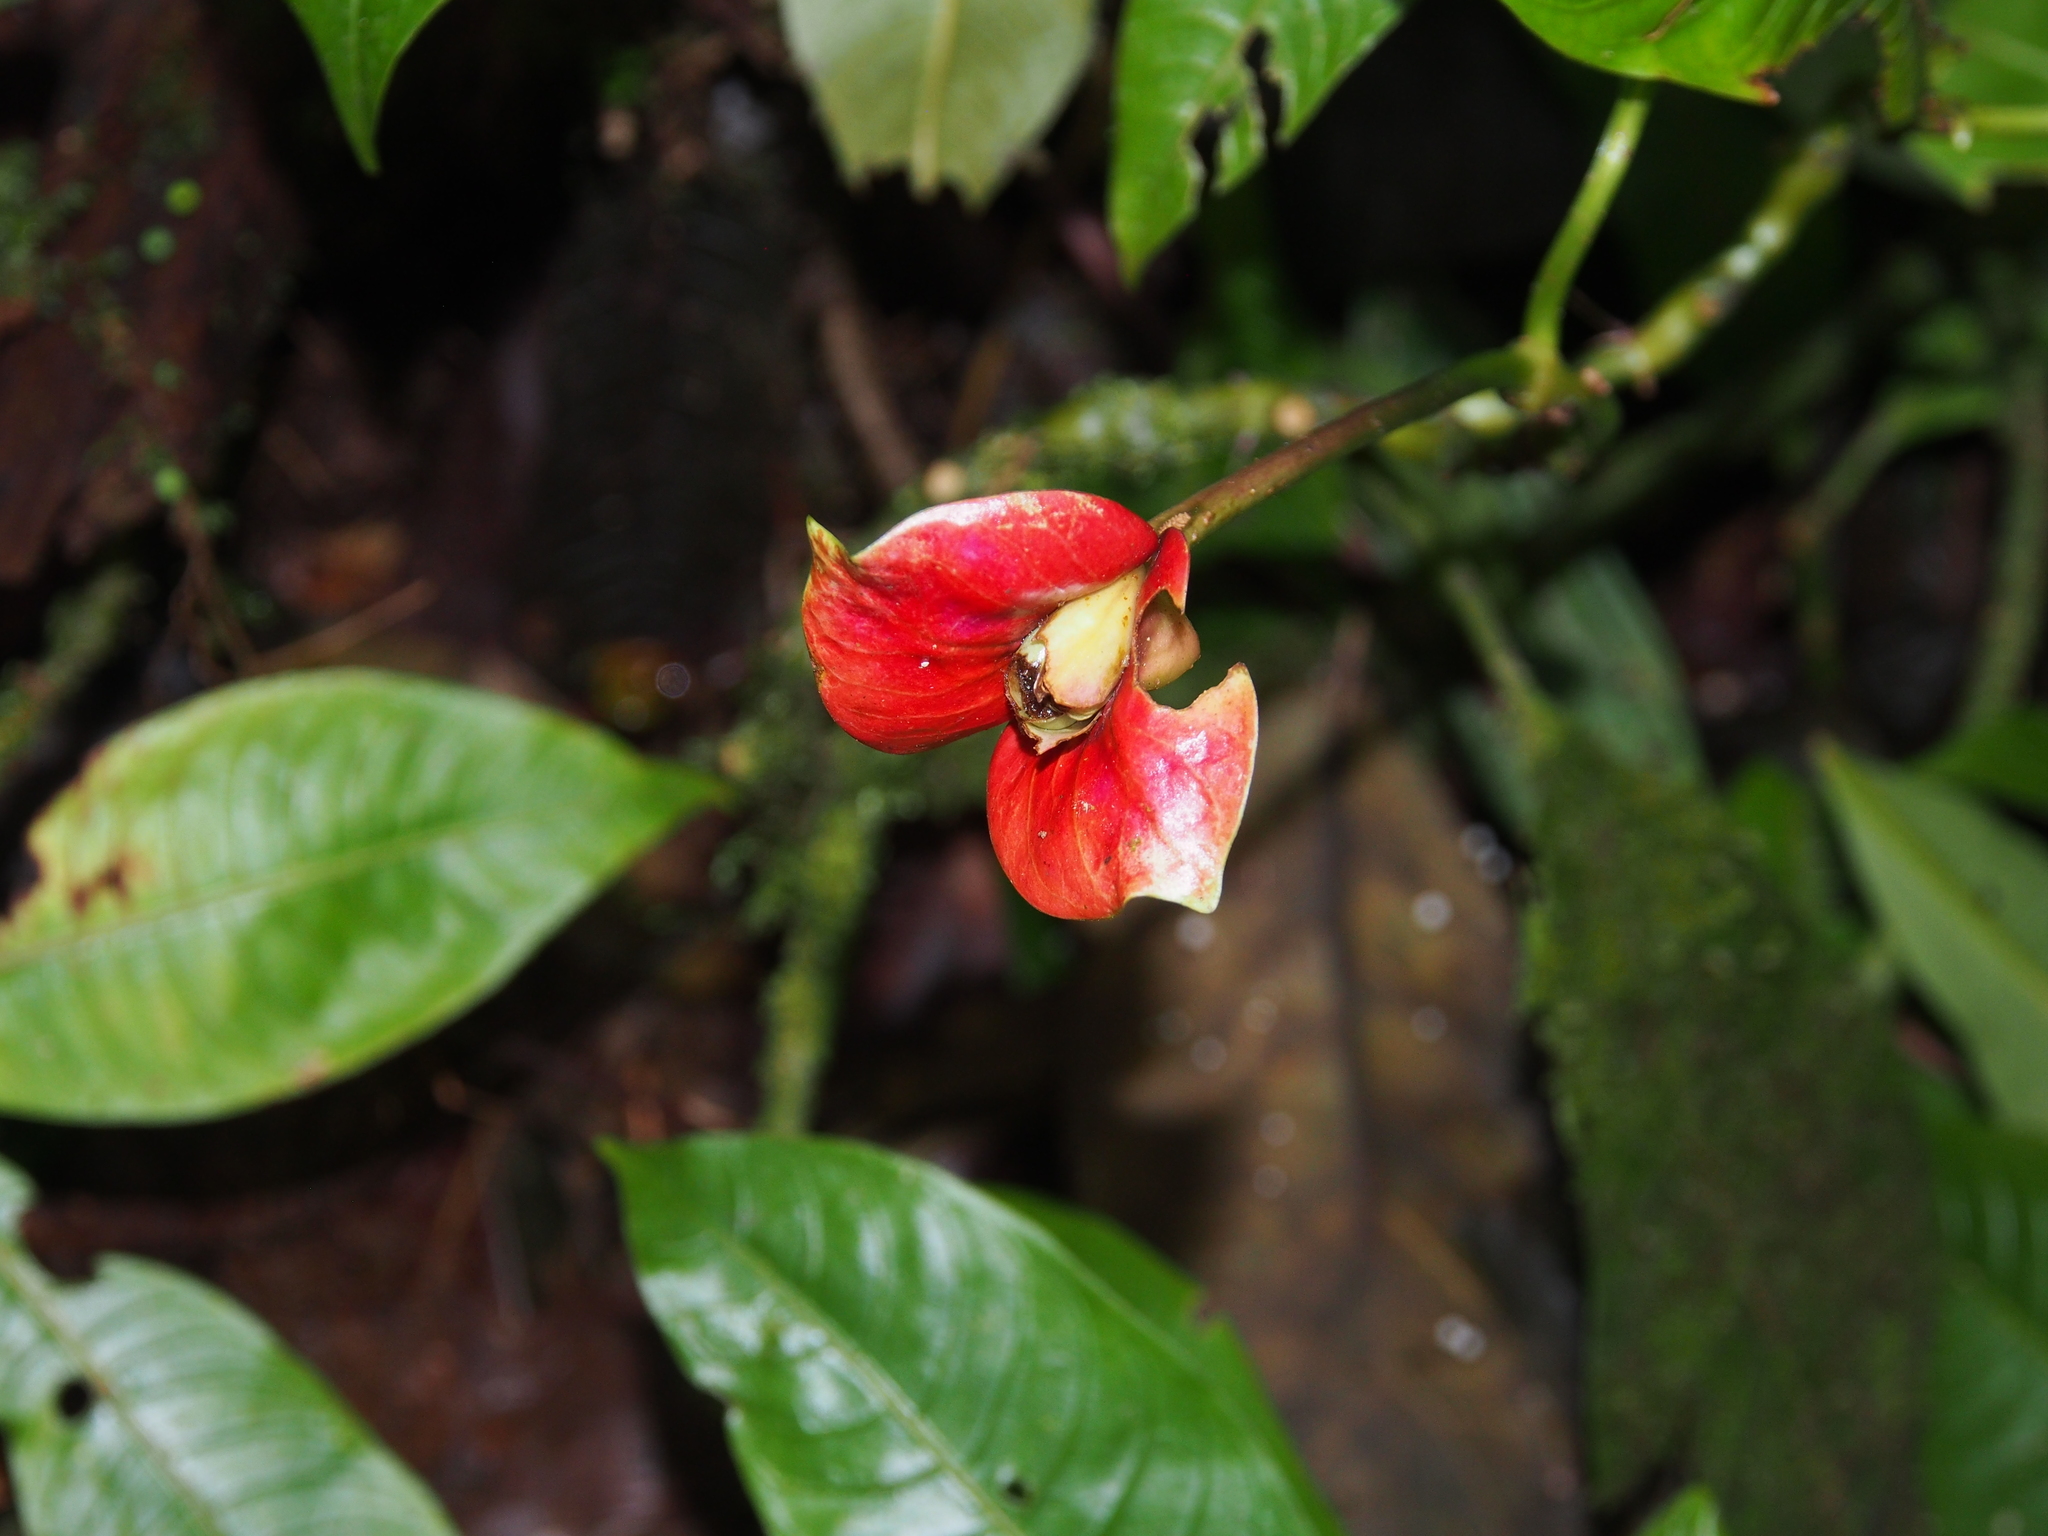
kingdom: Plantae
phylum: Tracheophyta
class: Magnoliopsida
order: Gentianales
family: Rubiaceae
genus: Palicourea
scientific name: Palicourea elata
